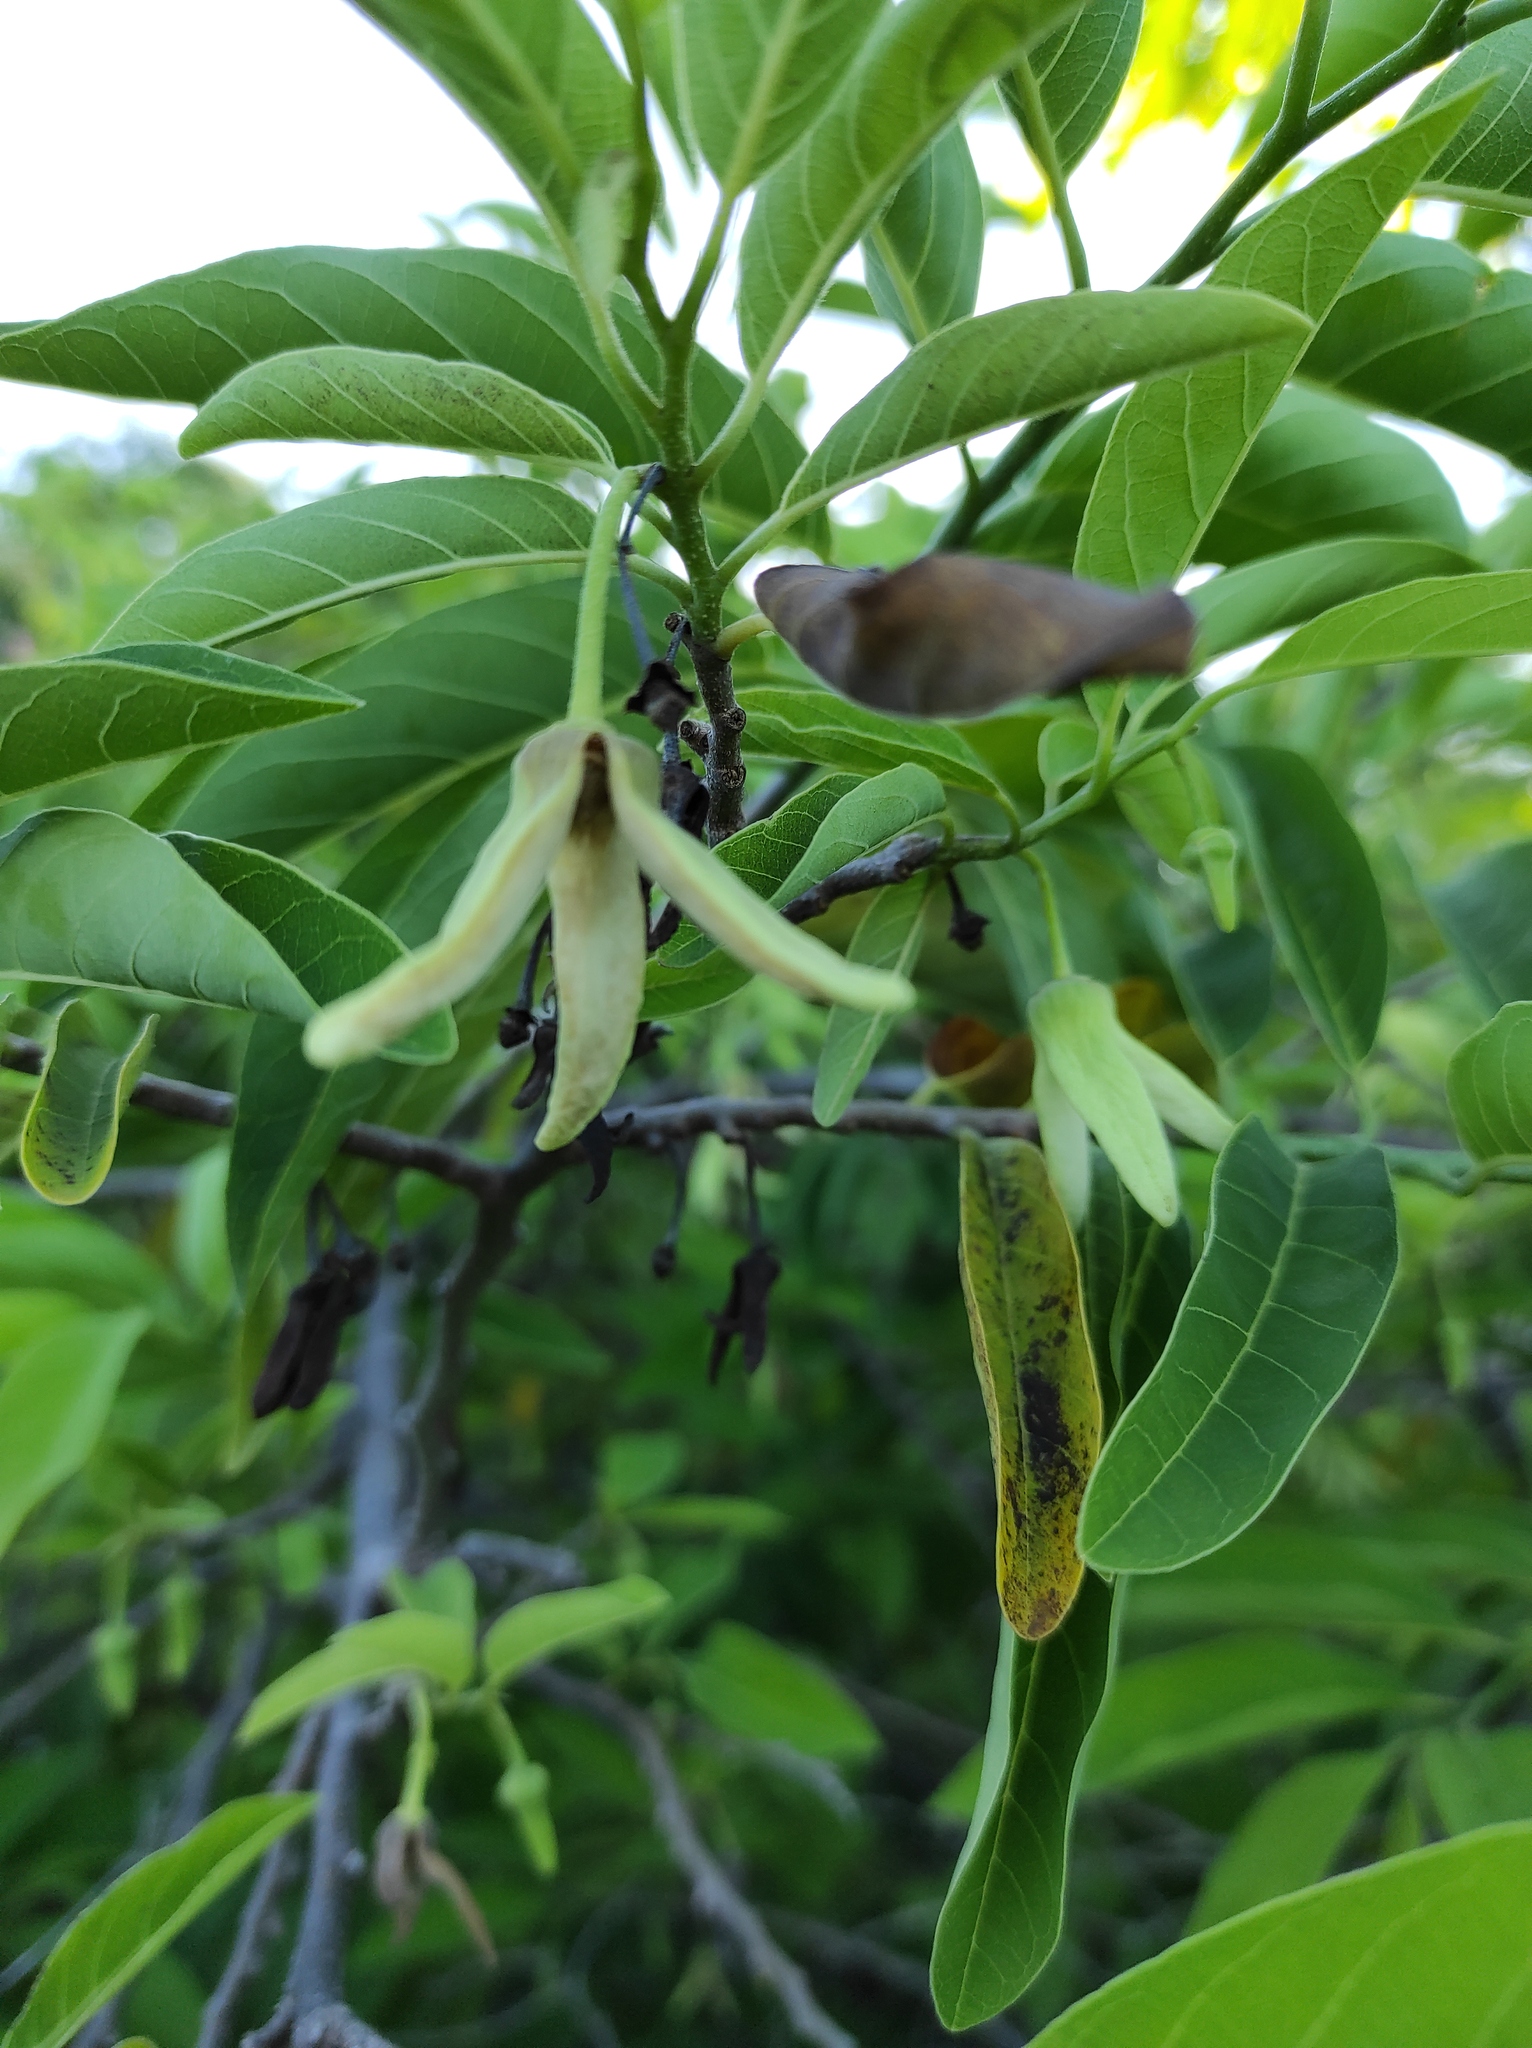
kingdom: Plantae
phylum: Tracheophyta
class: Magnoliopsida
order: Magnoliales
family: Annonaceae
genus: Annona
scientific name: Annona squamosa
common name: Custard-apple
